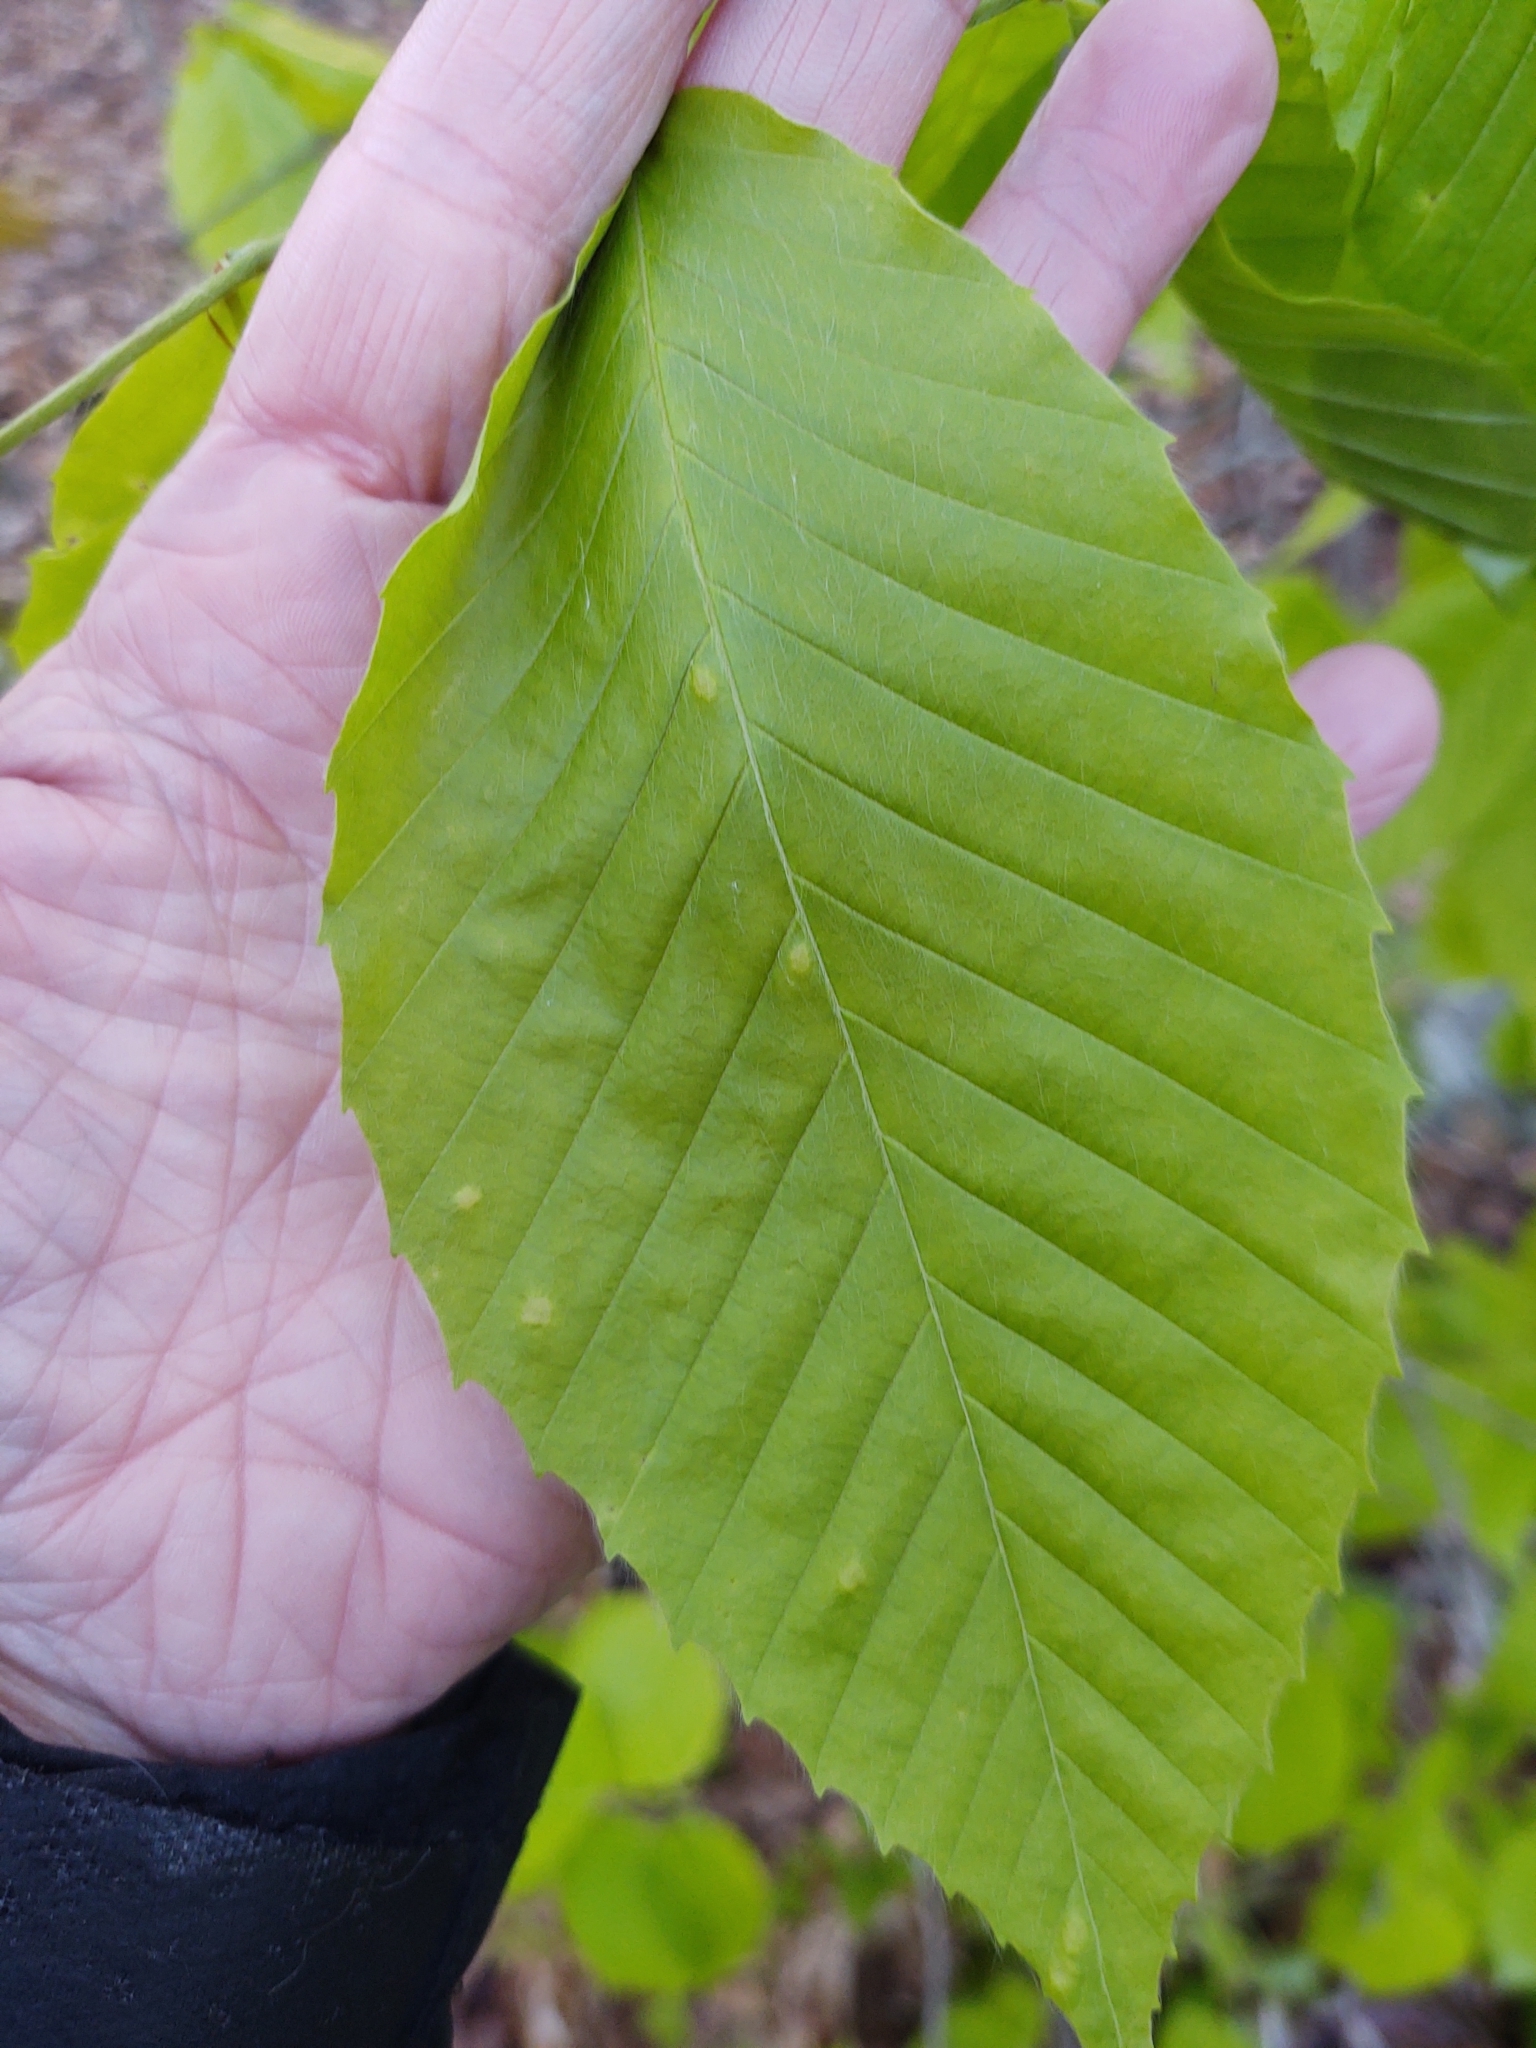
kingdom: Plantae
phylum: Tracheophyta
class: Magnoliopsida
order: Fagales
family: Fagaceae
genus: Fagus
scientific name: Fagus grandifolia
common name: American beech
